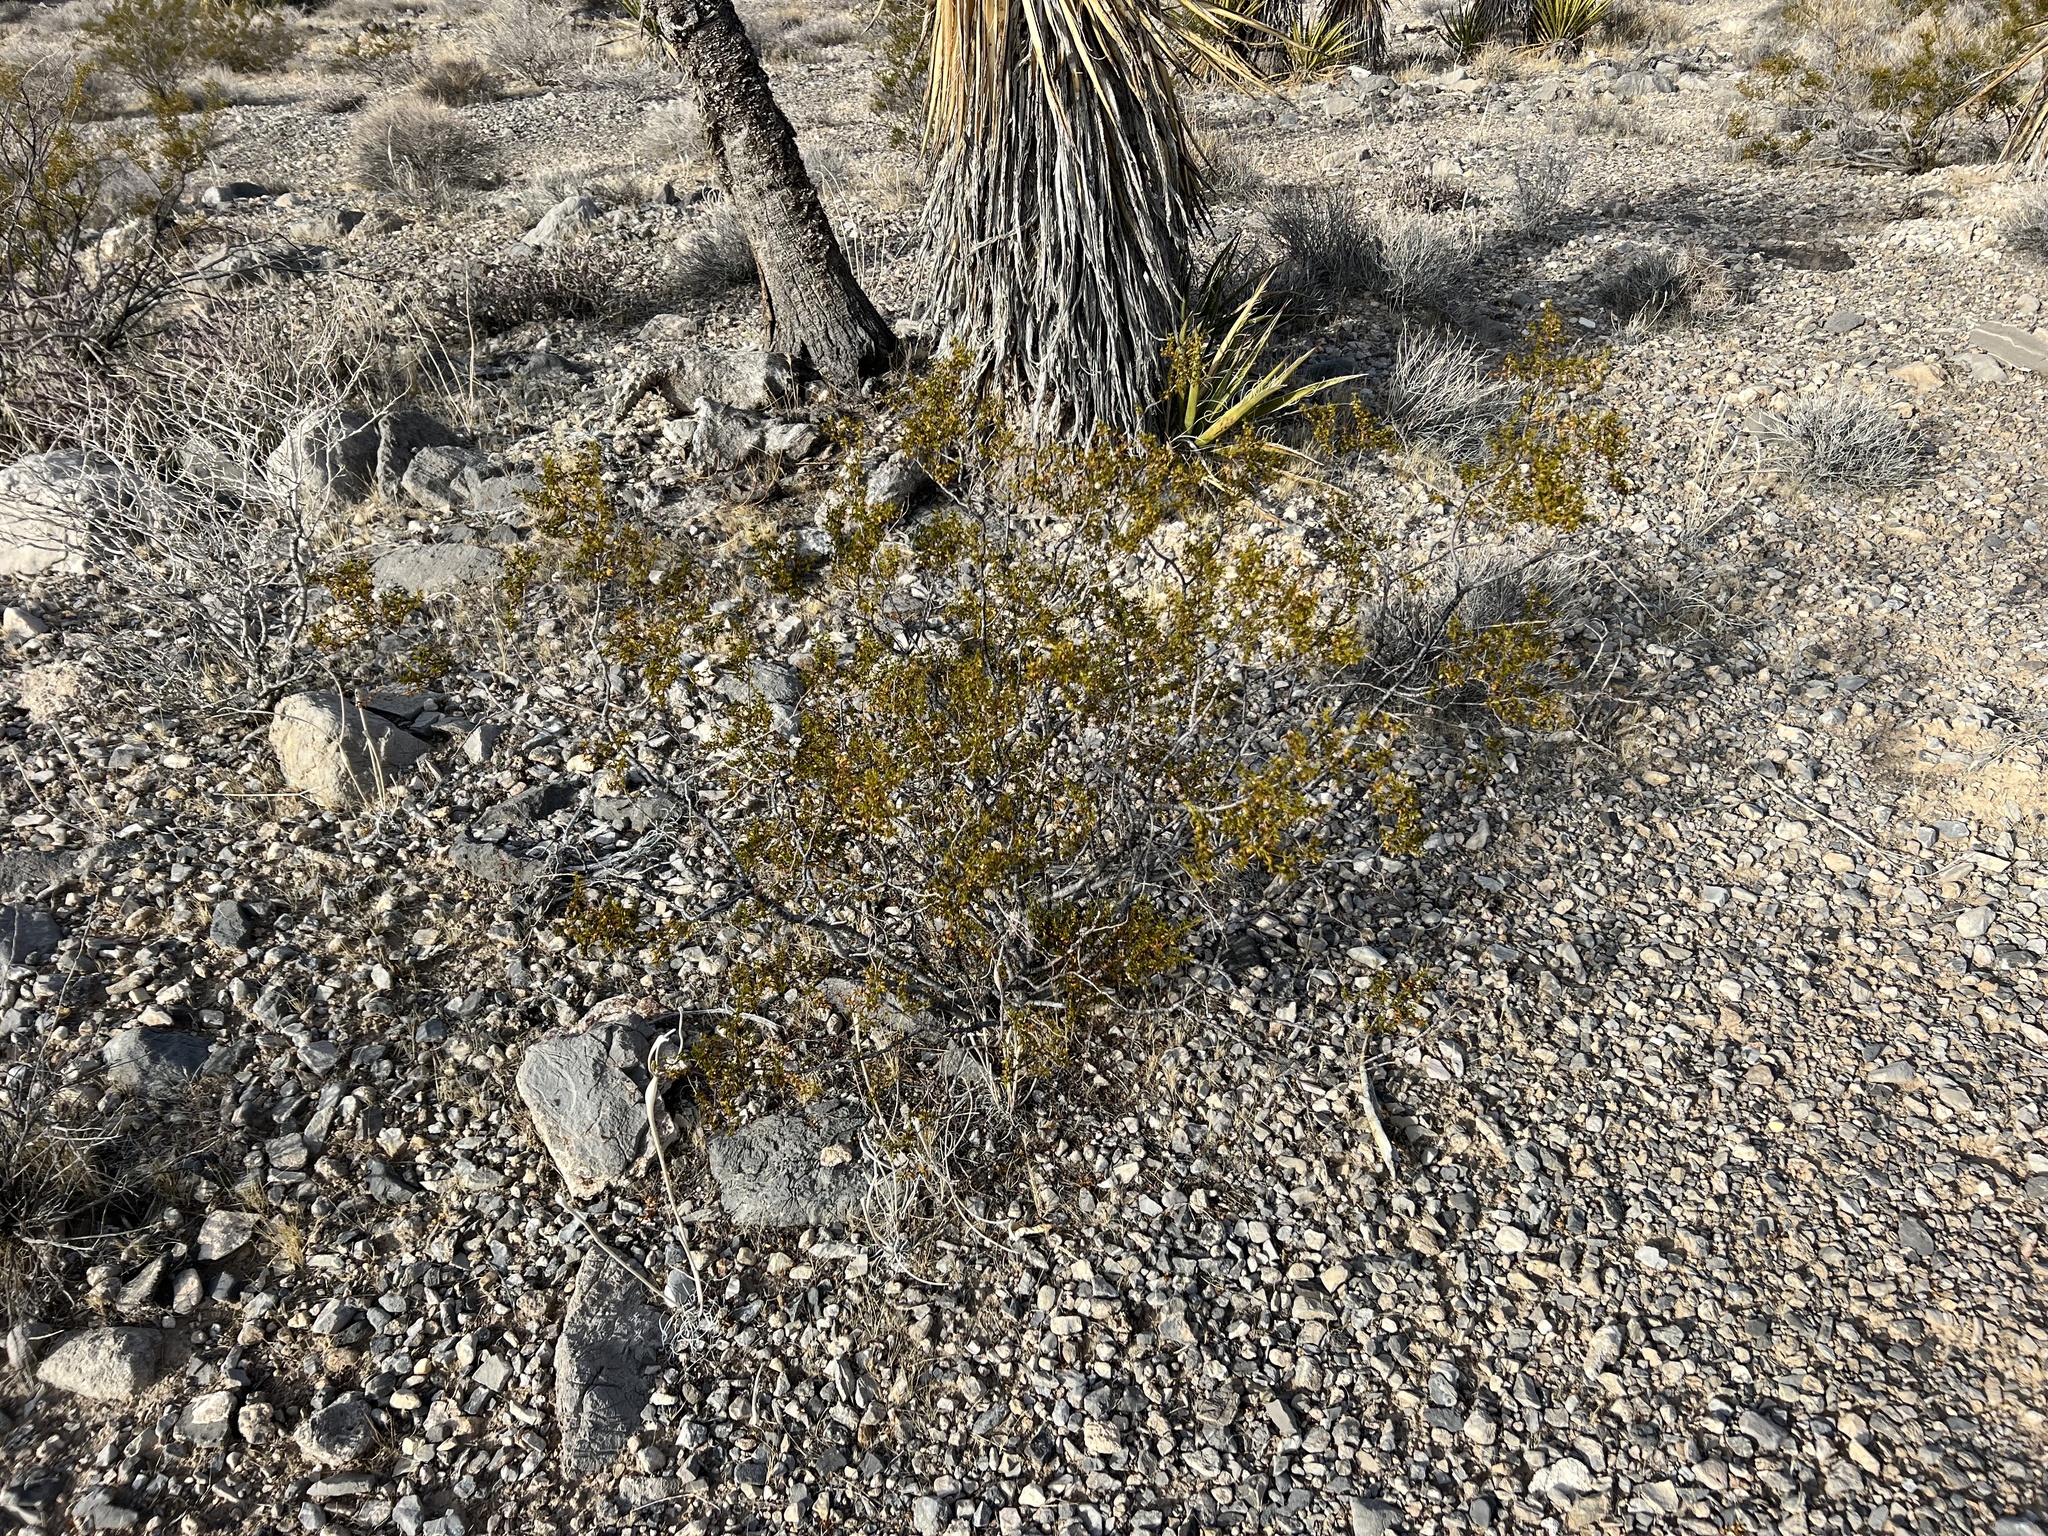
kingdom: Plantae
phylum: Tracheophyta
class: Magnoliopsida
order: Zygophyllales
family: Zygophyllaceae
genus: Larrea
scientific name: Larrea tridentata
